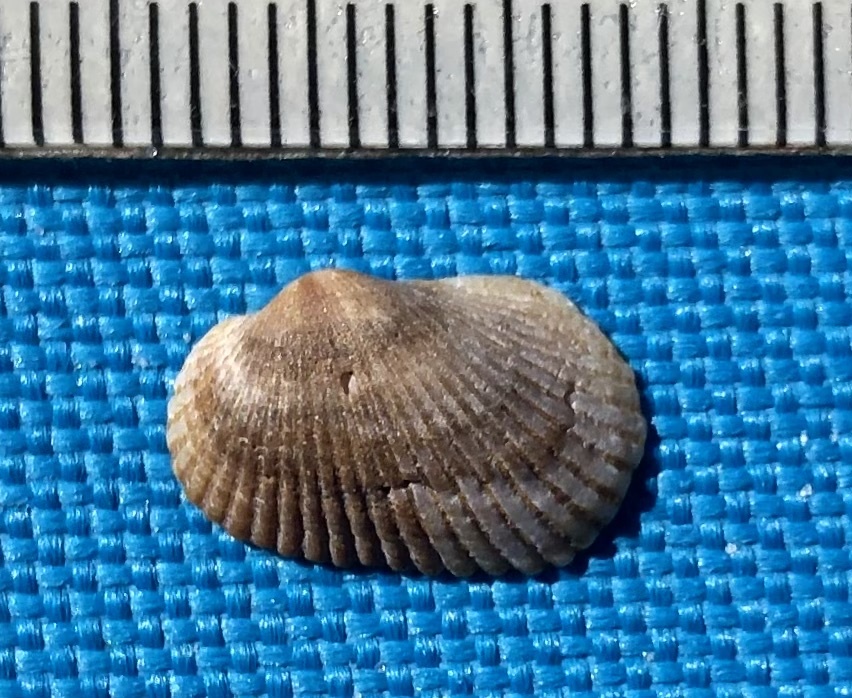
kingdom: Animalia
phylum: Mollusca
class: Bivalvia
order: Arcida
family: Arcidae
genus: Anadara
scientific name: Anadara transversa
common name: Transverse ark
